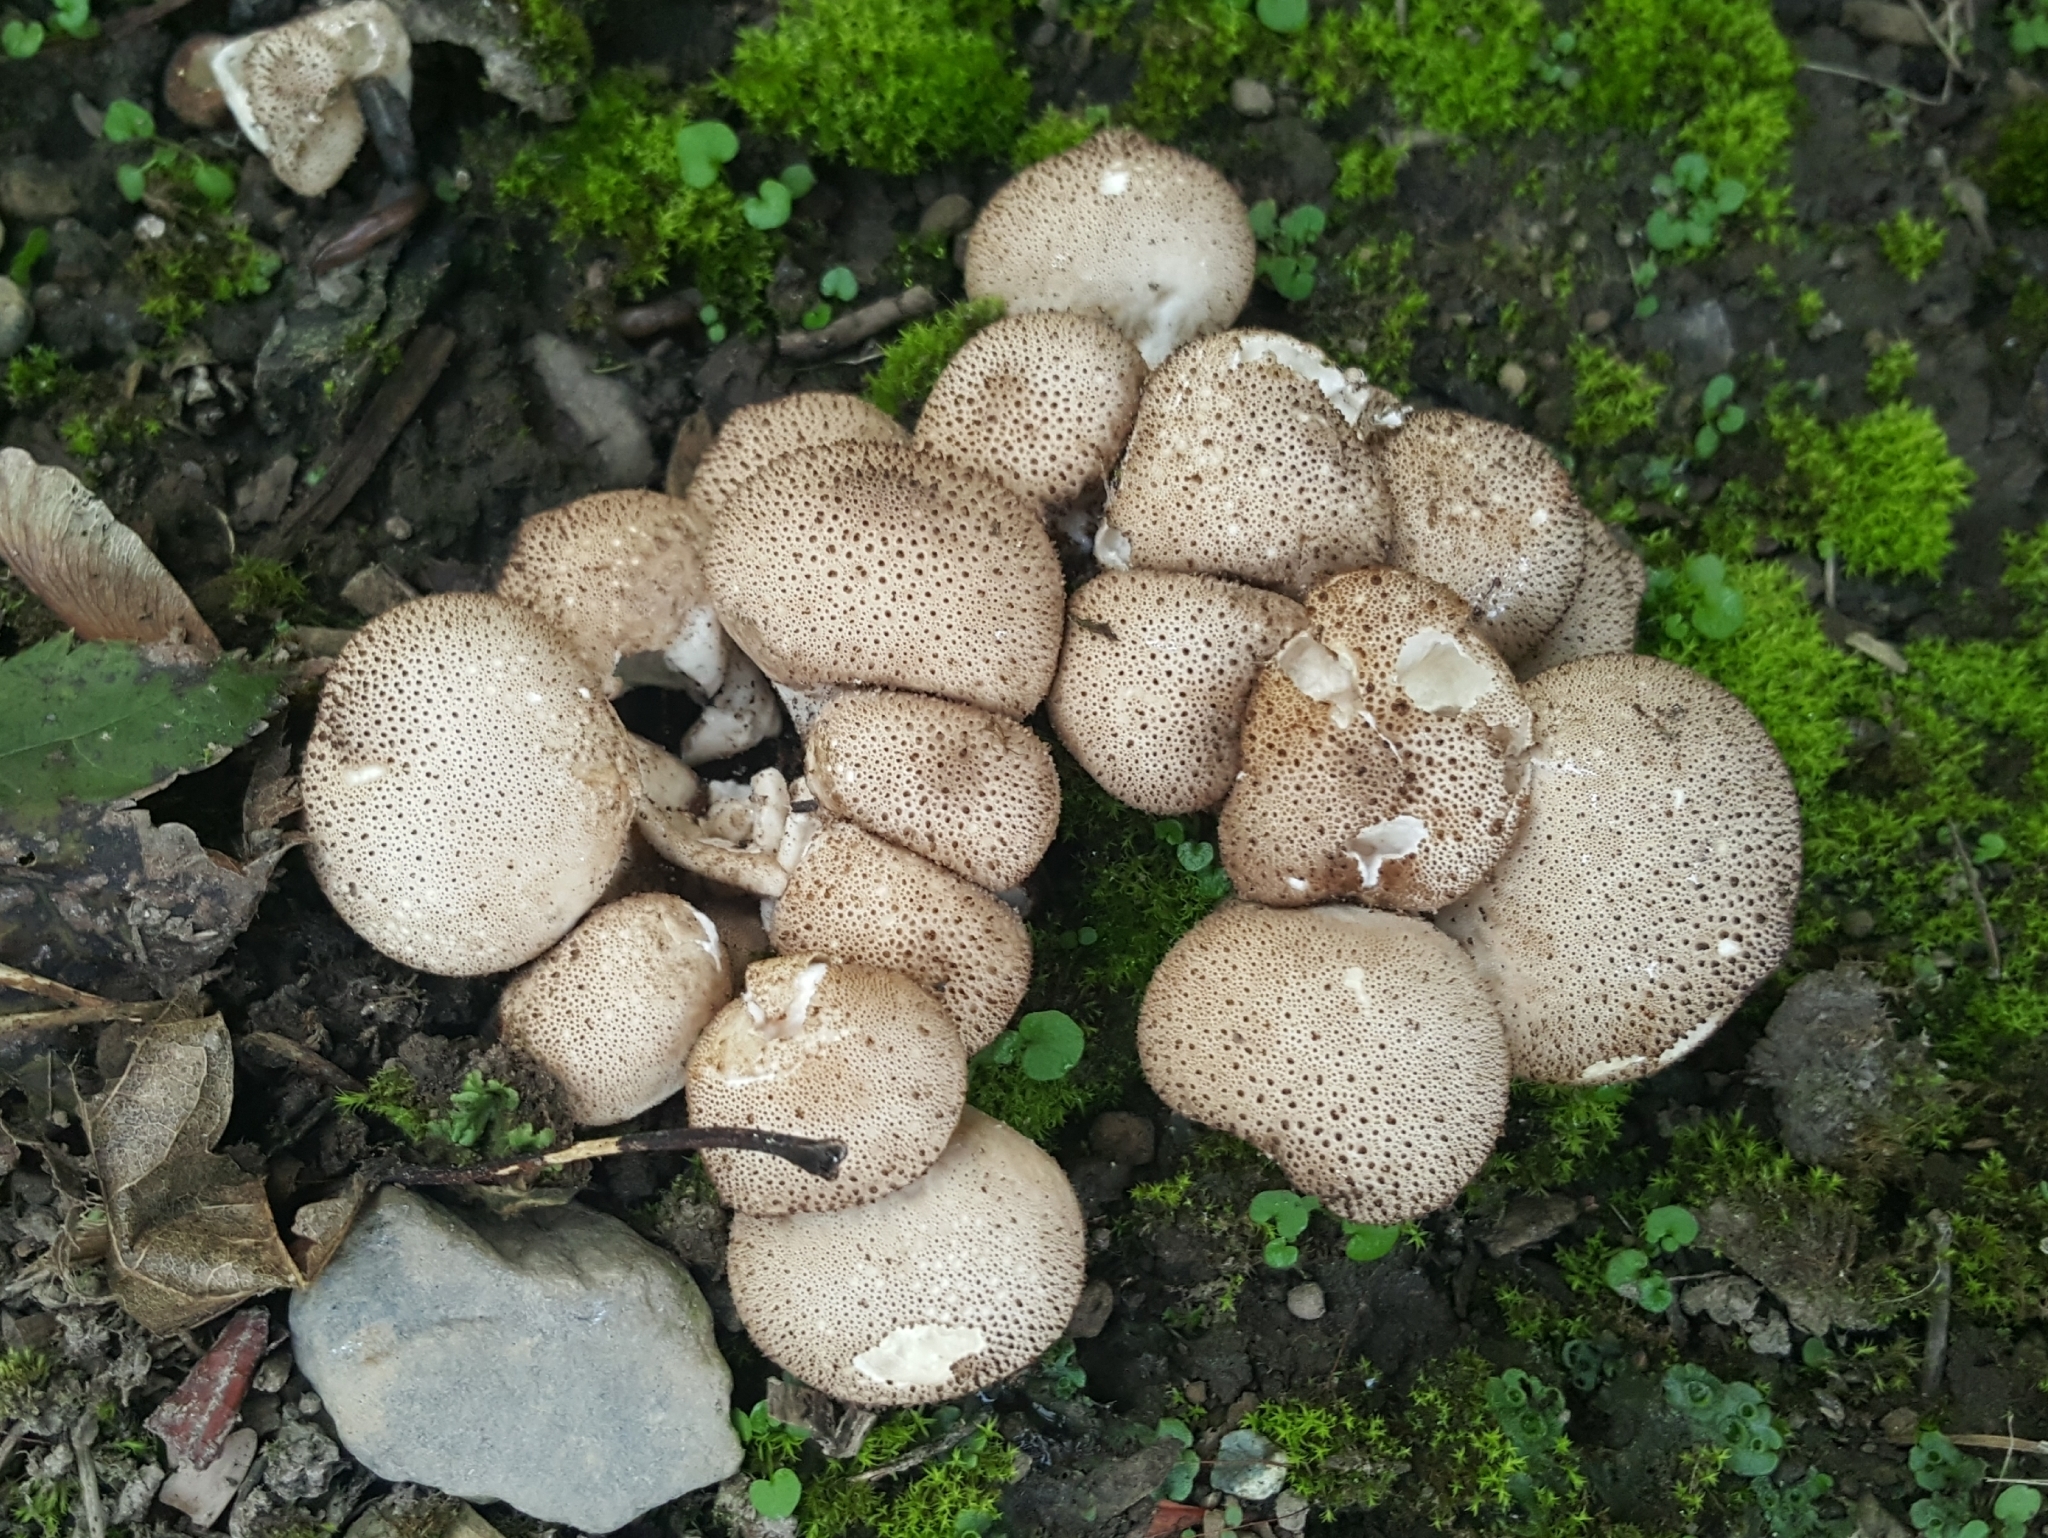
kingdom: Fungi
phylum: Basidiomycota
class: Agaricomycetes
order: Agaricales
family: Lycoperdaceae
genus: Lycoperdon
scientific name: Lycoperdon perlatum
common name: Common puffball
